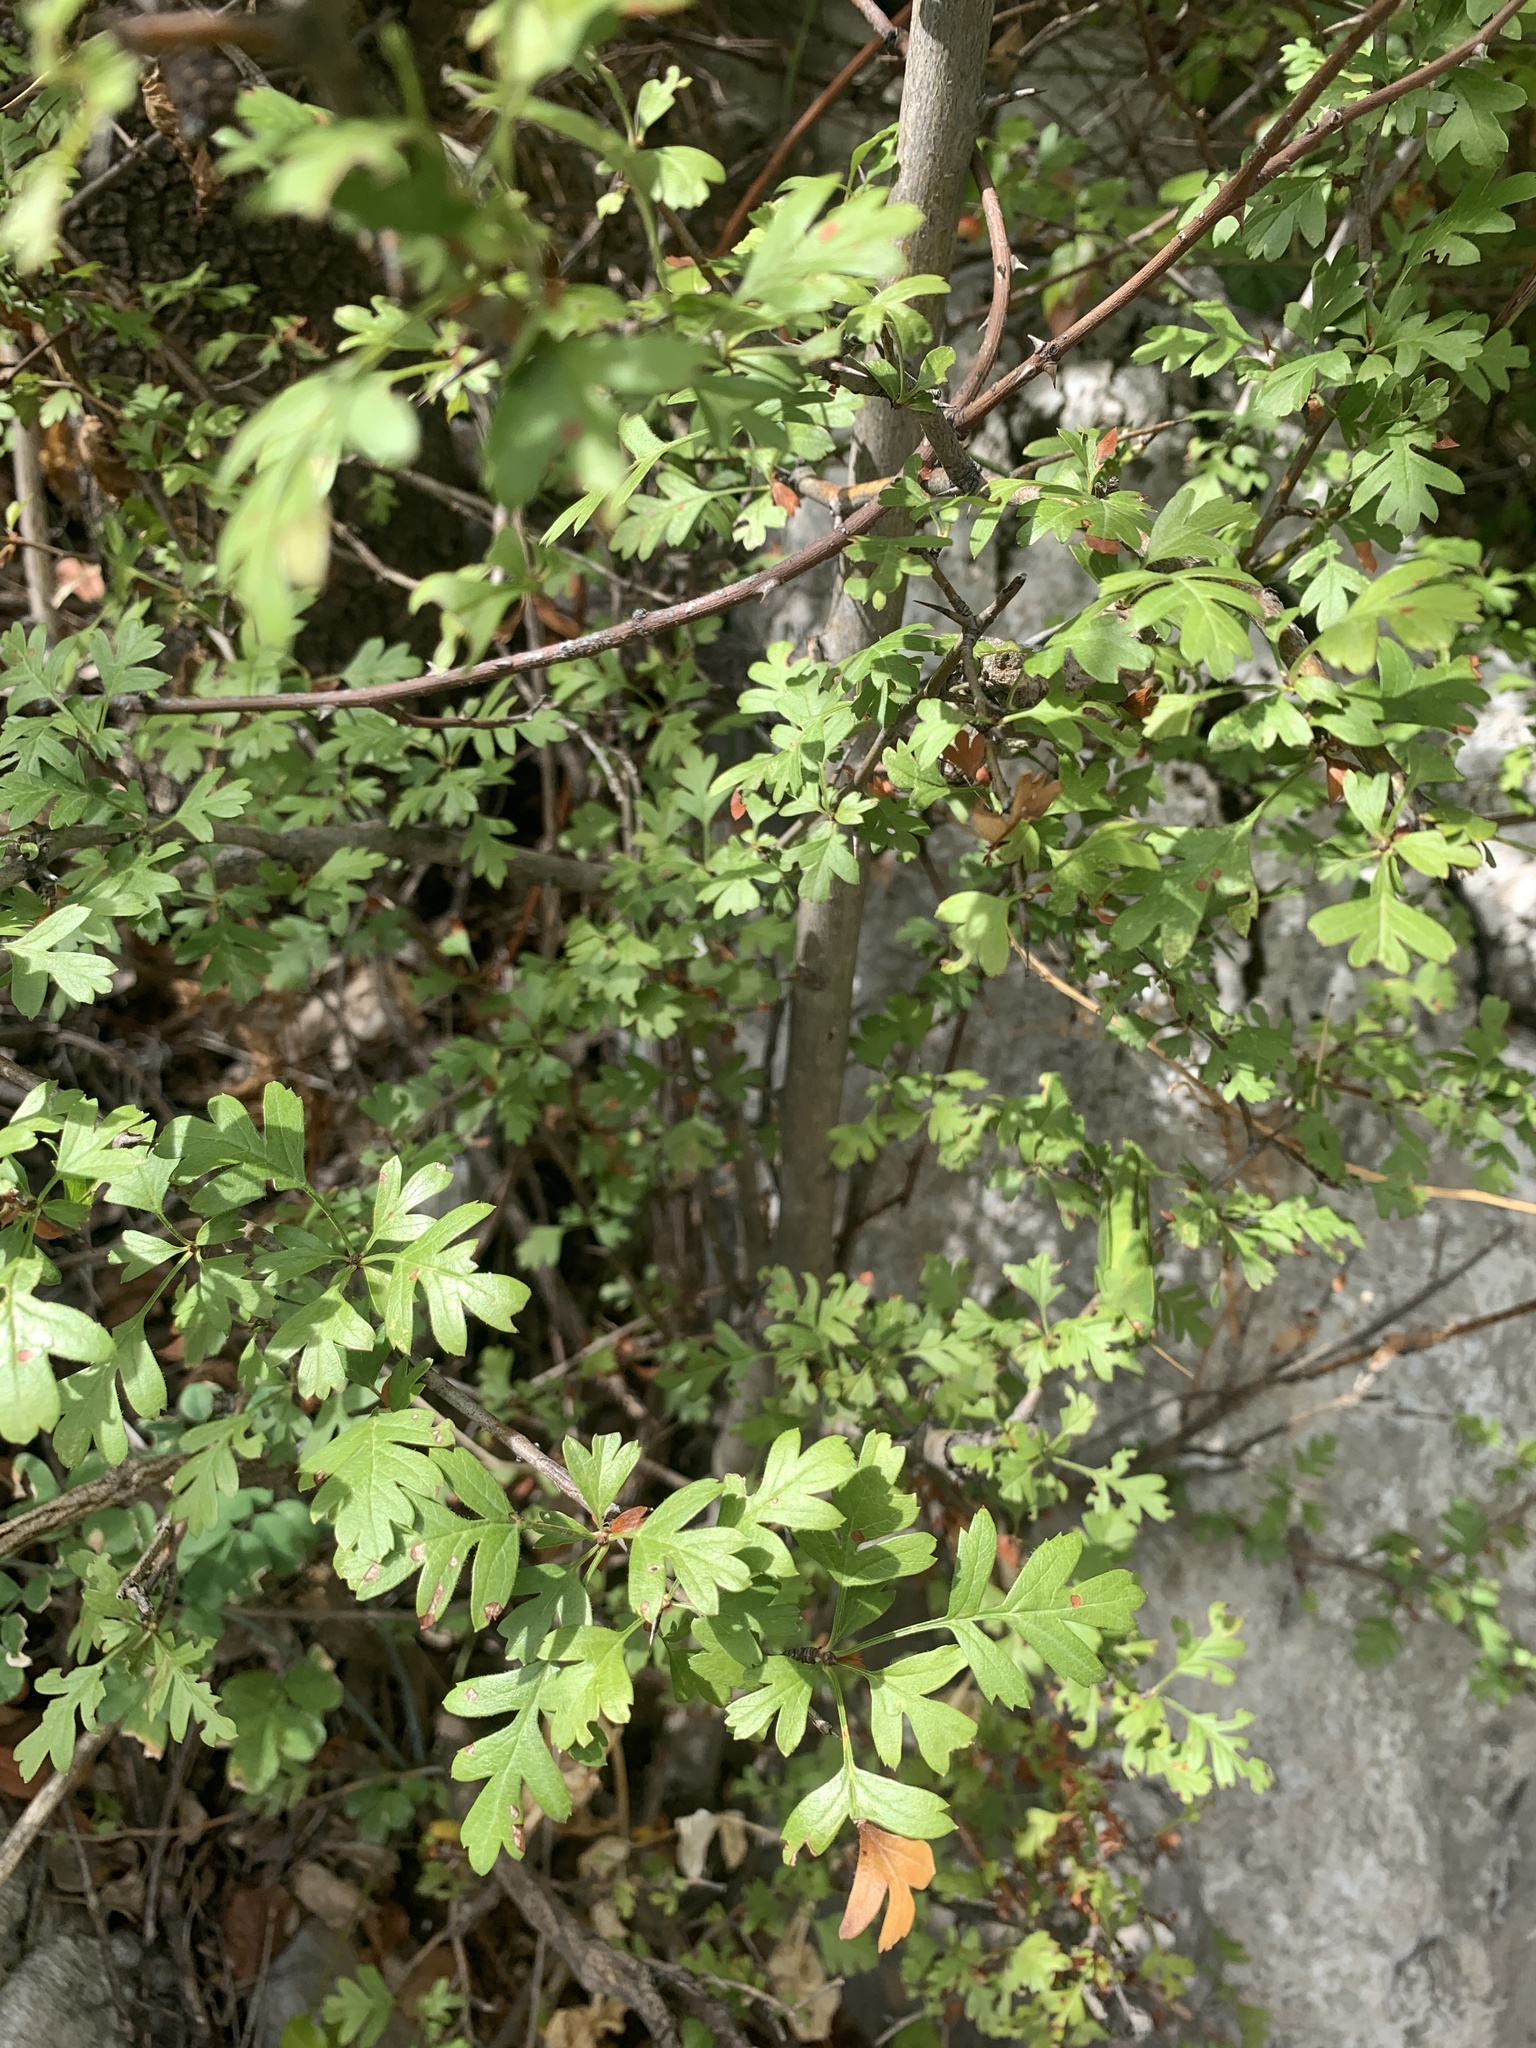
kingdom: Plantae
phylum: Tracheophyta
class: Magnoliopsida
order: Rosales
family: Rosaceae
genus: Crataegus
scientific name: Crataegus monogyna
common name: Hawthorn
